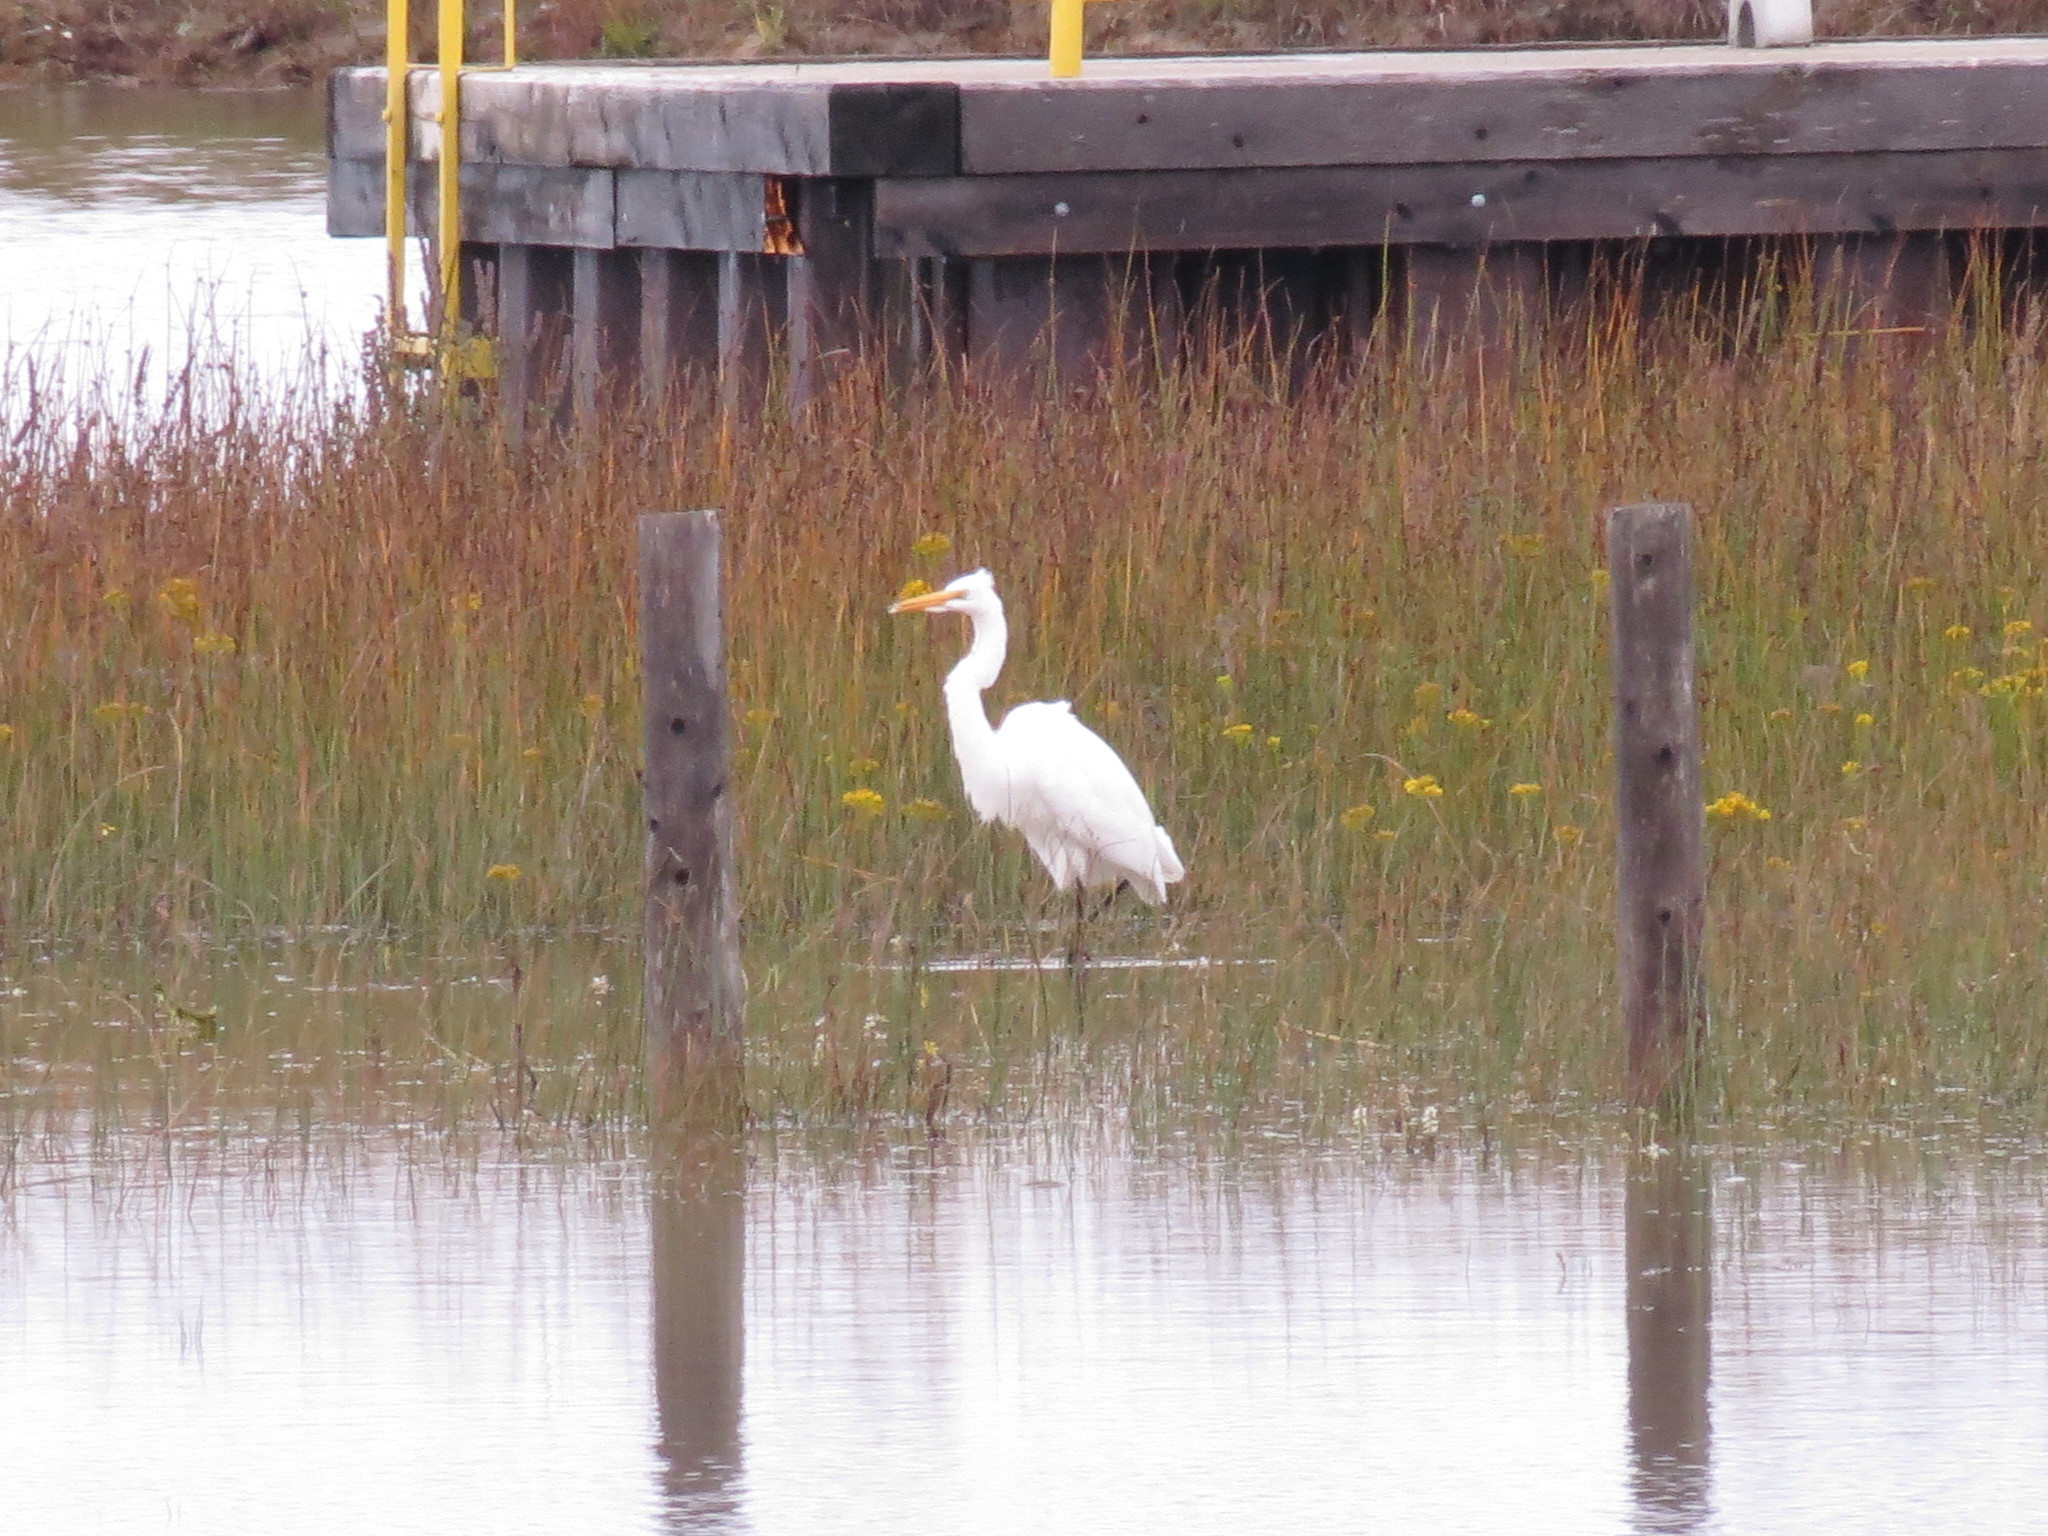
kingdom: Animalia
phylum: Chordata
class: Aves
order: Pelecaniformes
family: Ardeidae
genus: Ardea
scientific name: Ardea alba
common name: Great egret
